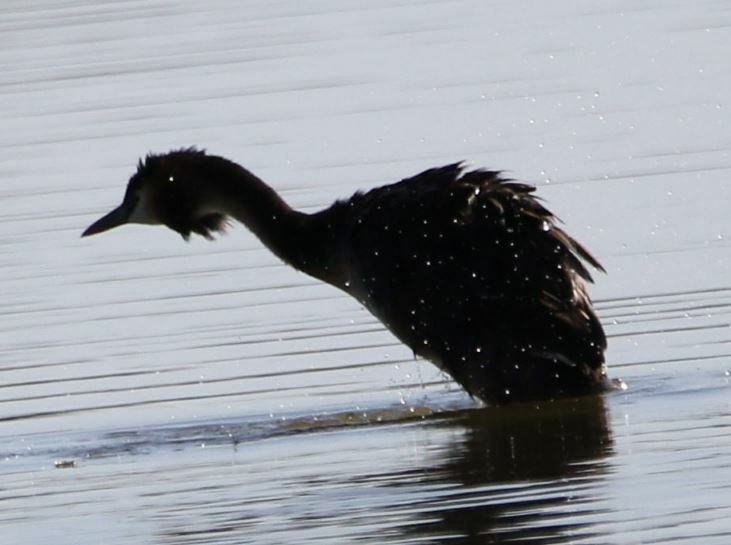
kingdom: Animalia
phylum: Chordata
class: Aves
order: Podicipediformes
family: Podicipedidae
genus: Podiceps
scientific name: Podiceps cristatus
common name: Great crested grebe
